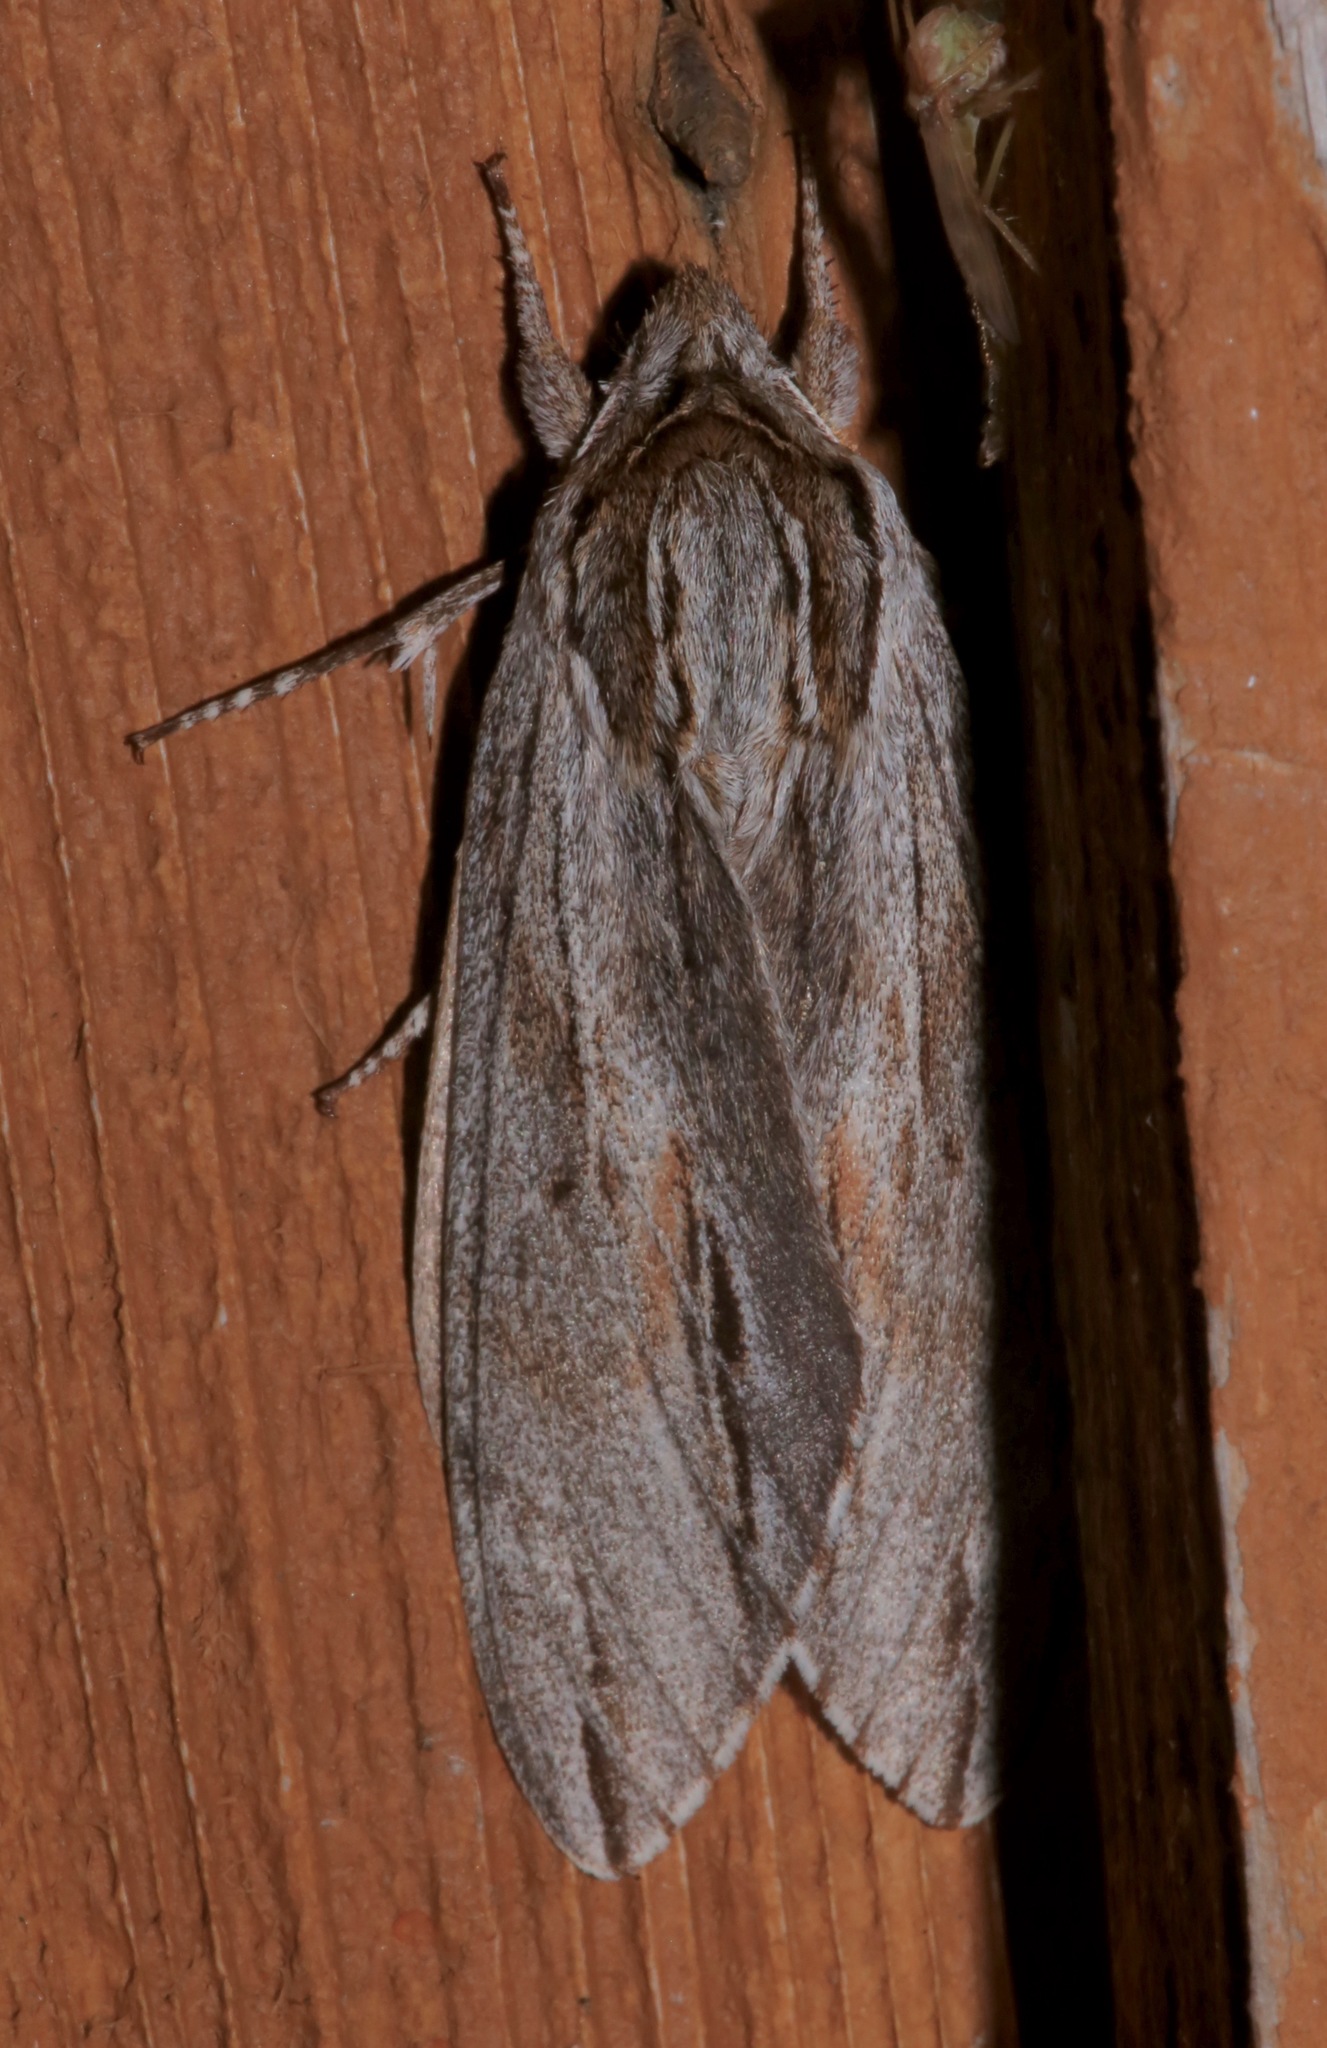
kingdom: Animalia
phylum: Arthropoda
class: Insecta
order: Lepidoptera
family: Sphingidae
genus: Isoparce
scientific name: Isoparce cupressi
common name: Cypress sphinx
